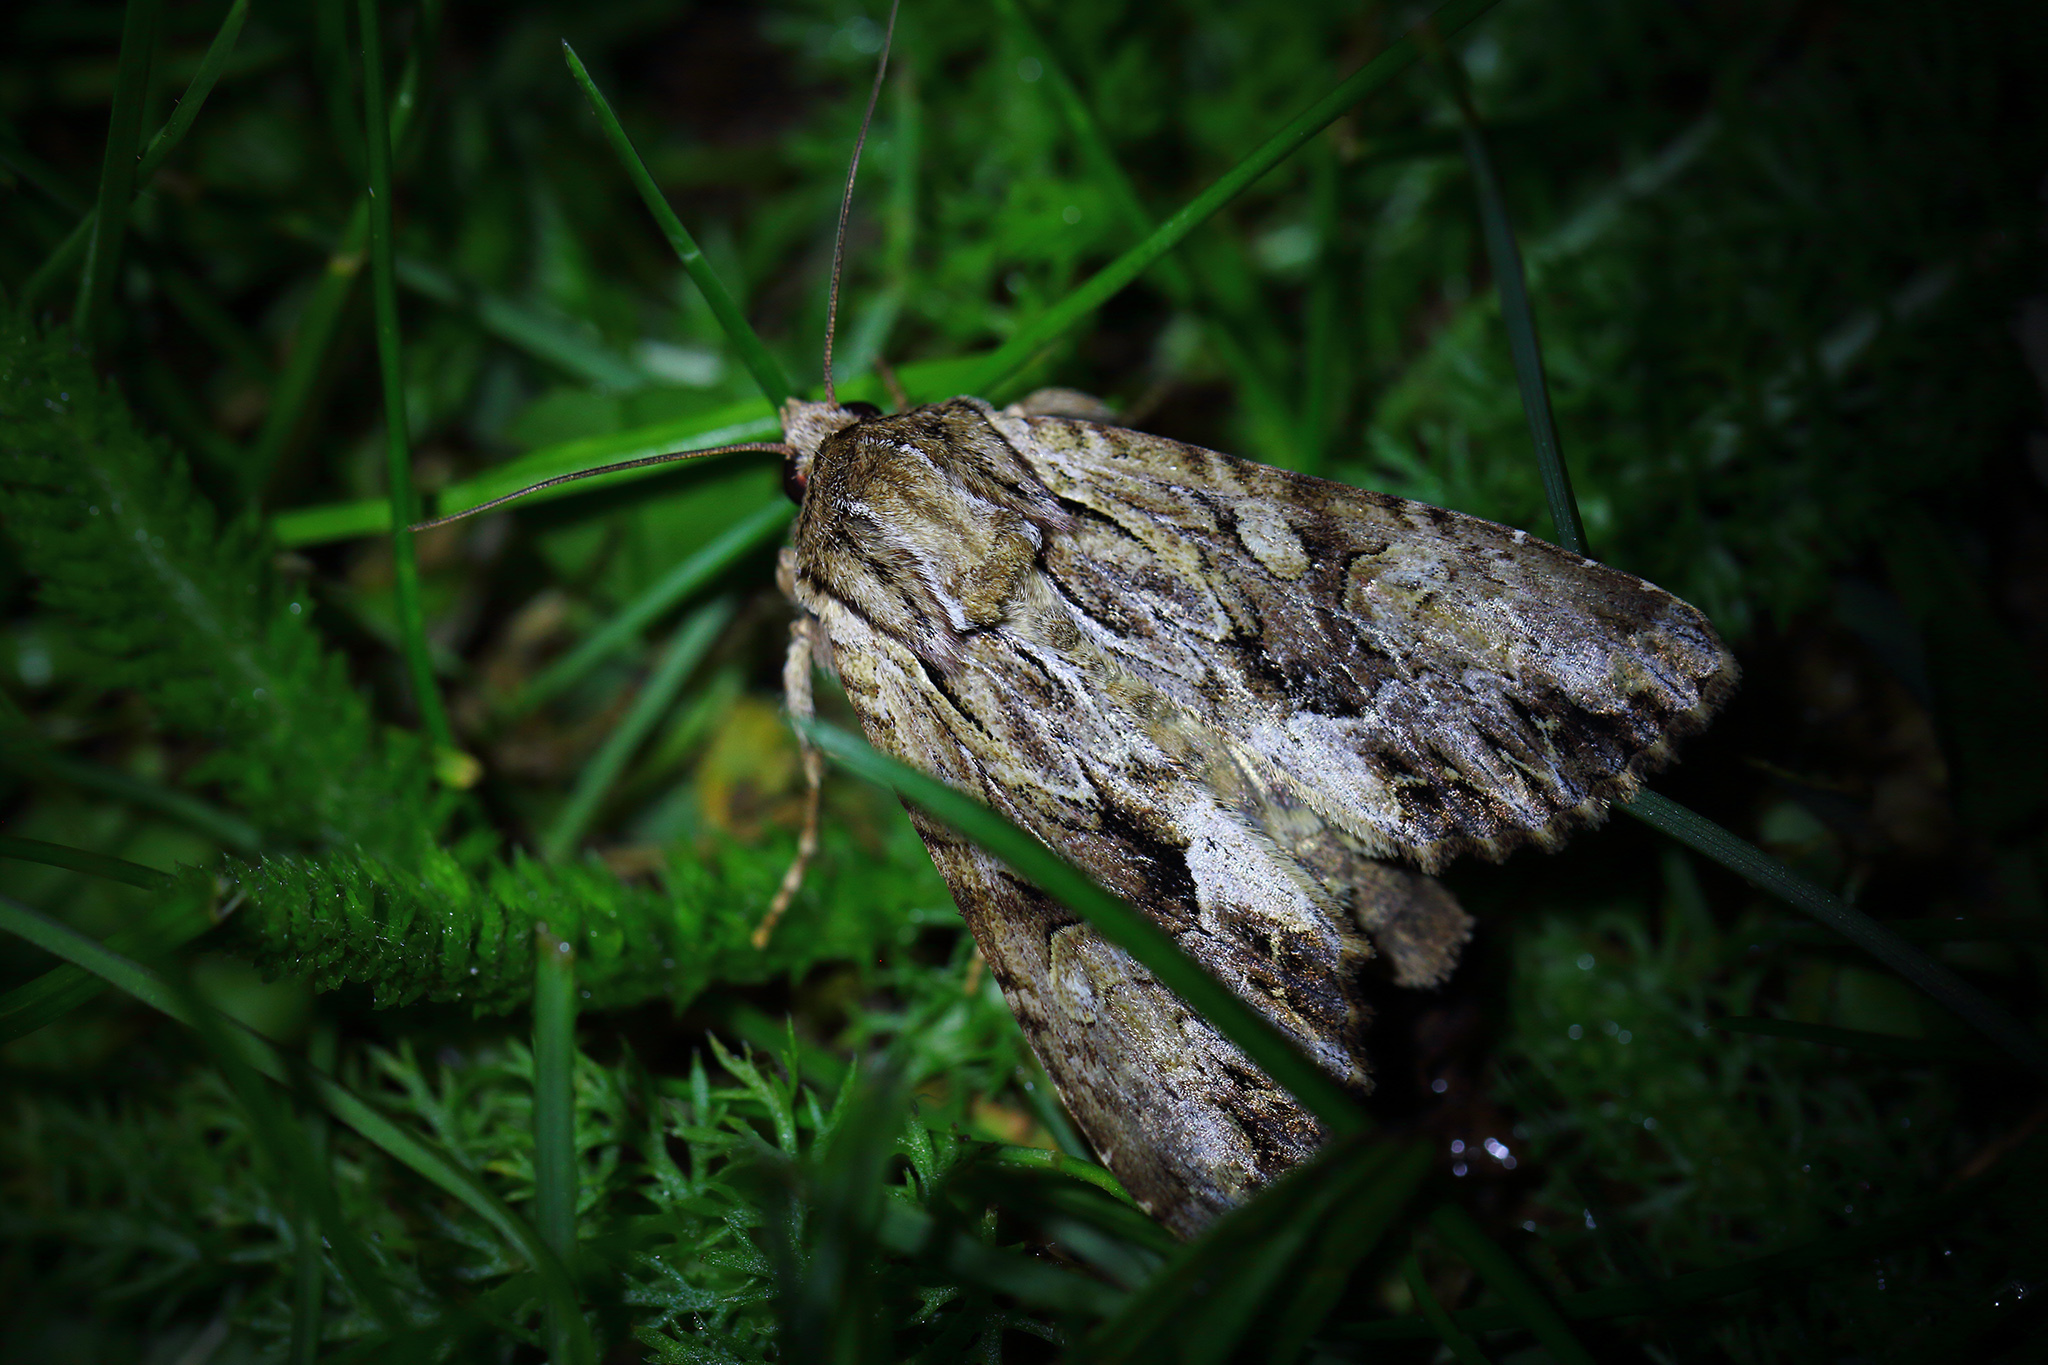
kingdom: Animalia
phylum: Arthropoda
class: Insecta
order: Lepidoptera
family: Noctuidae
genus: Apamea
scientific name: Apamea monoglypha
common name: Dark arches
